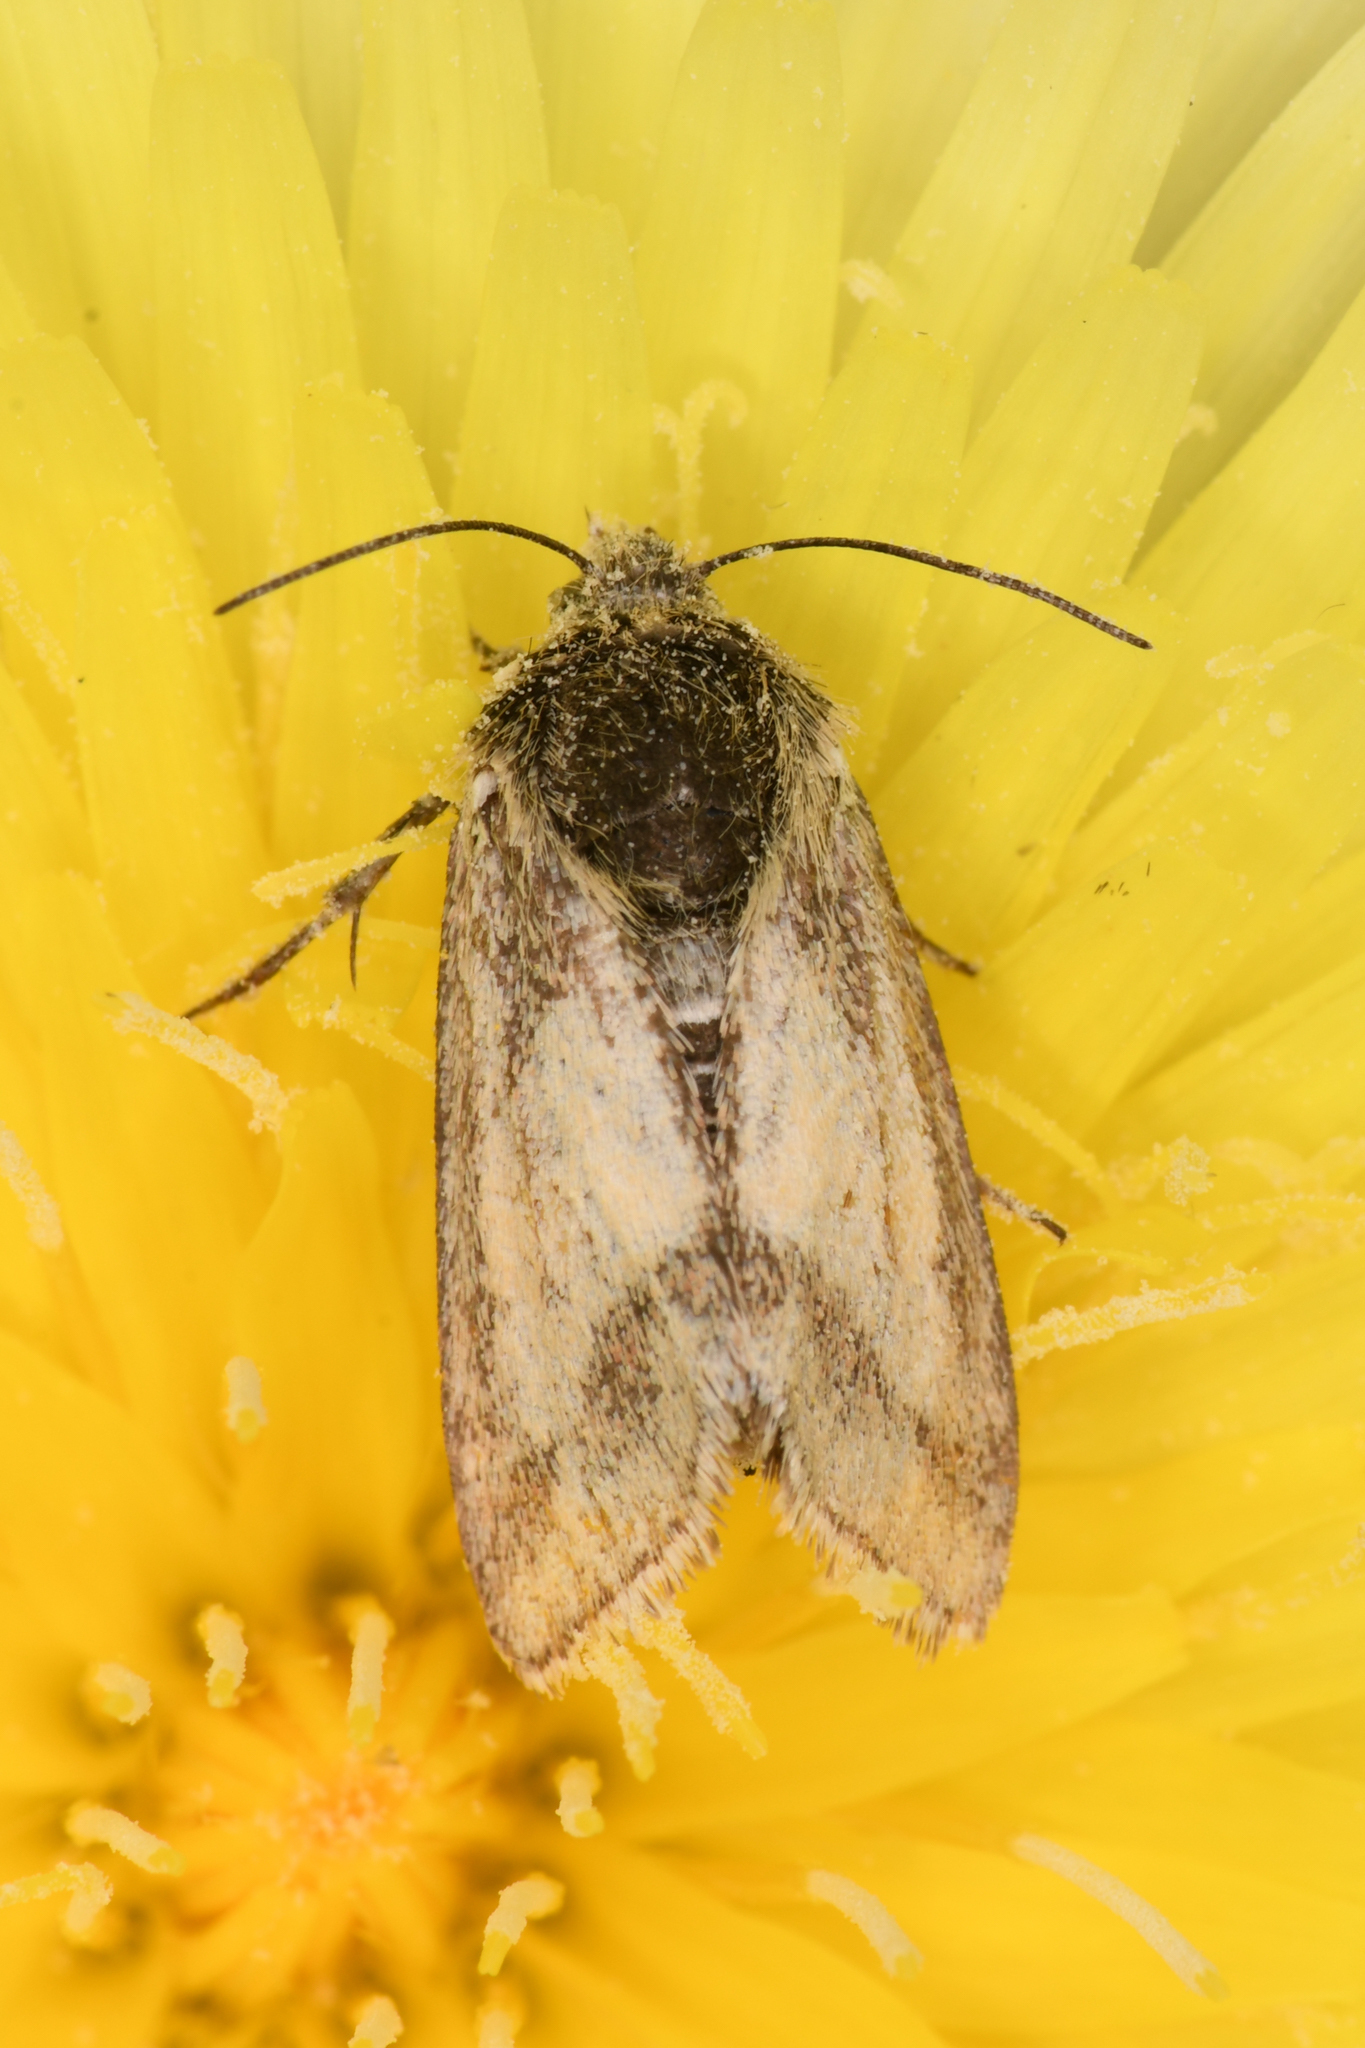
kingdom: Animalia
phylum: Arthropoda
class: Insecta
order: Lepidoptera
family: Noctuidae
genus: Heliolonche
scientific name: Heliolonche pictipennis
